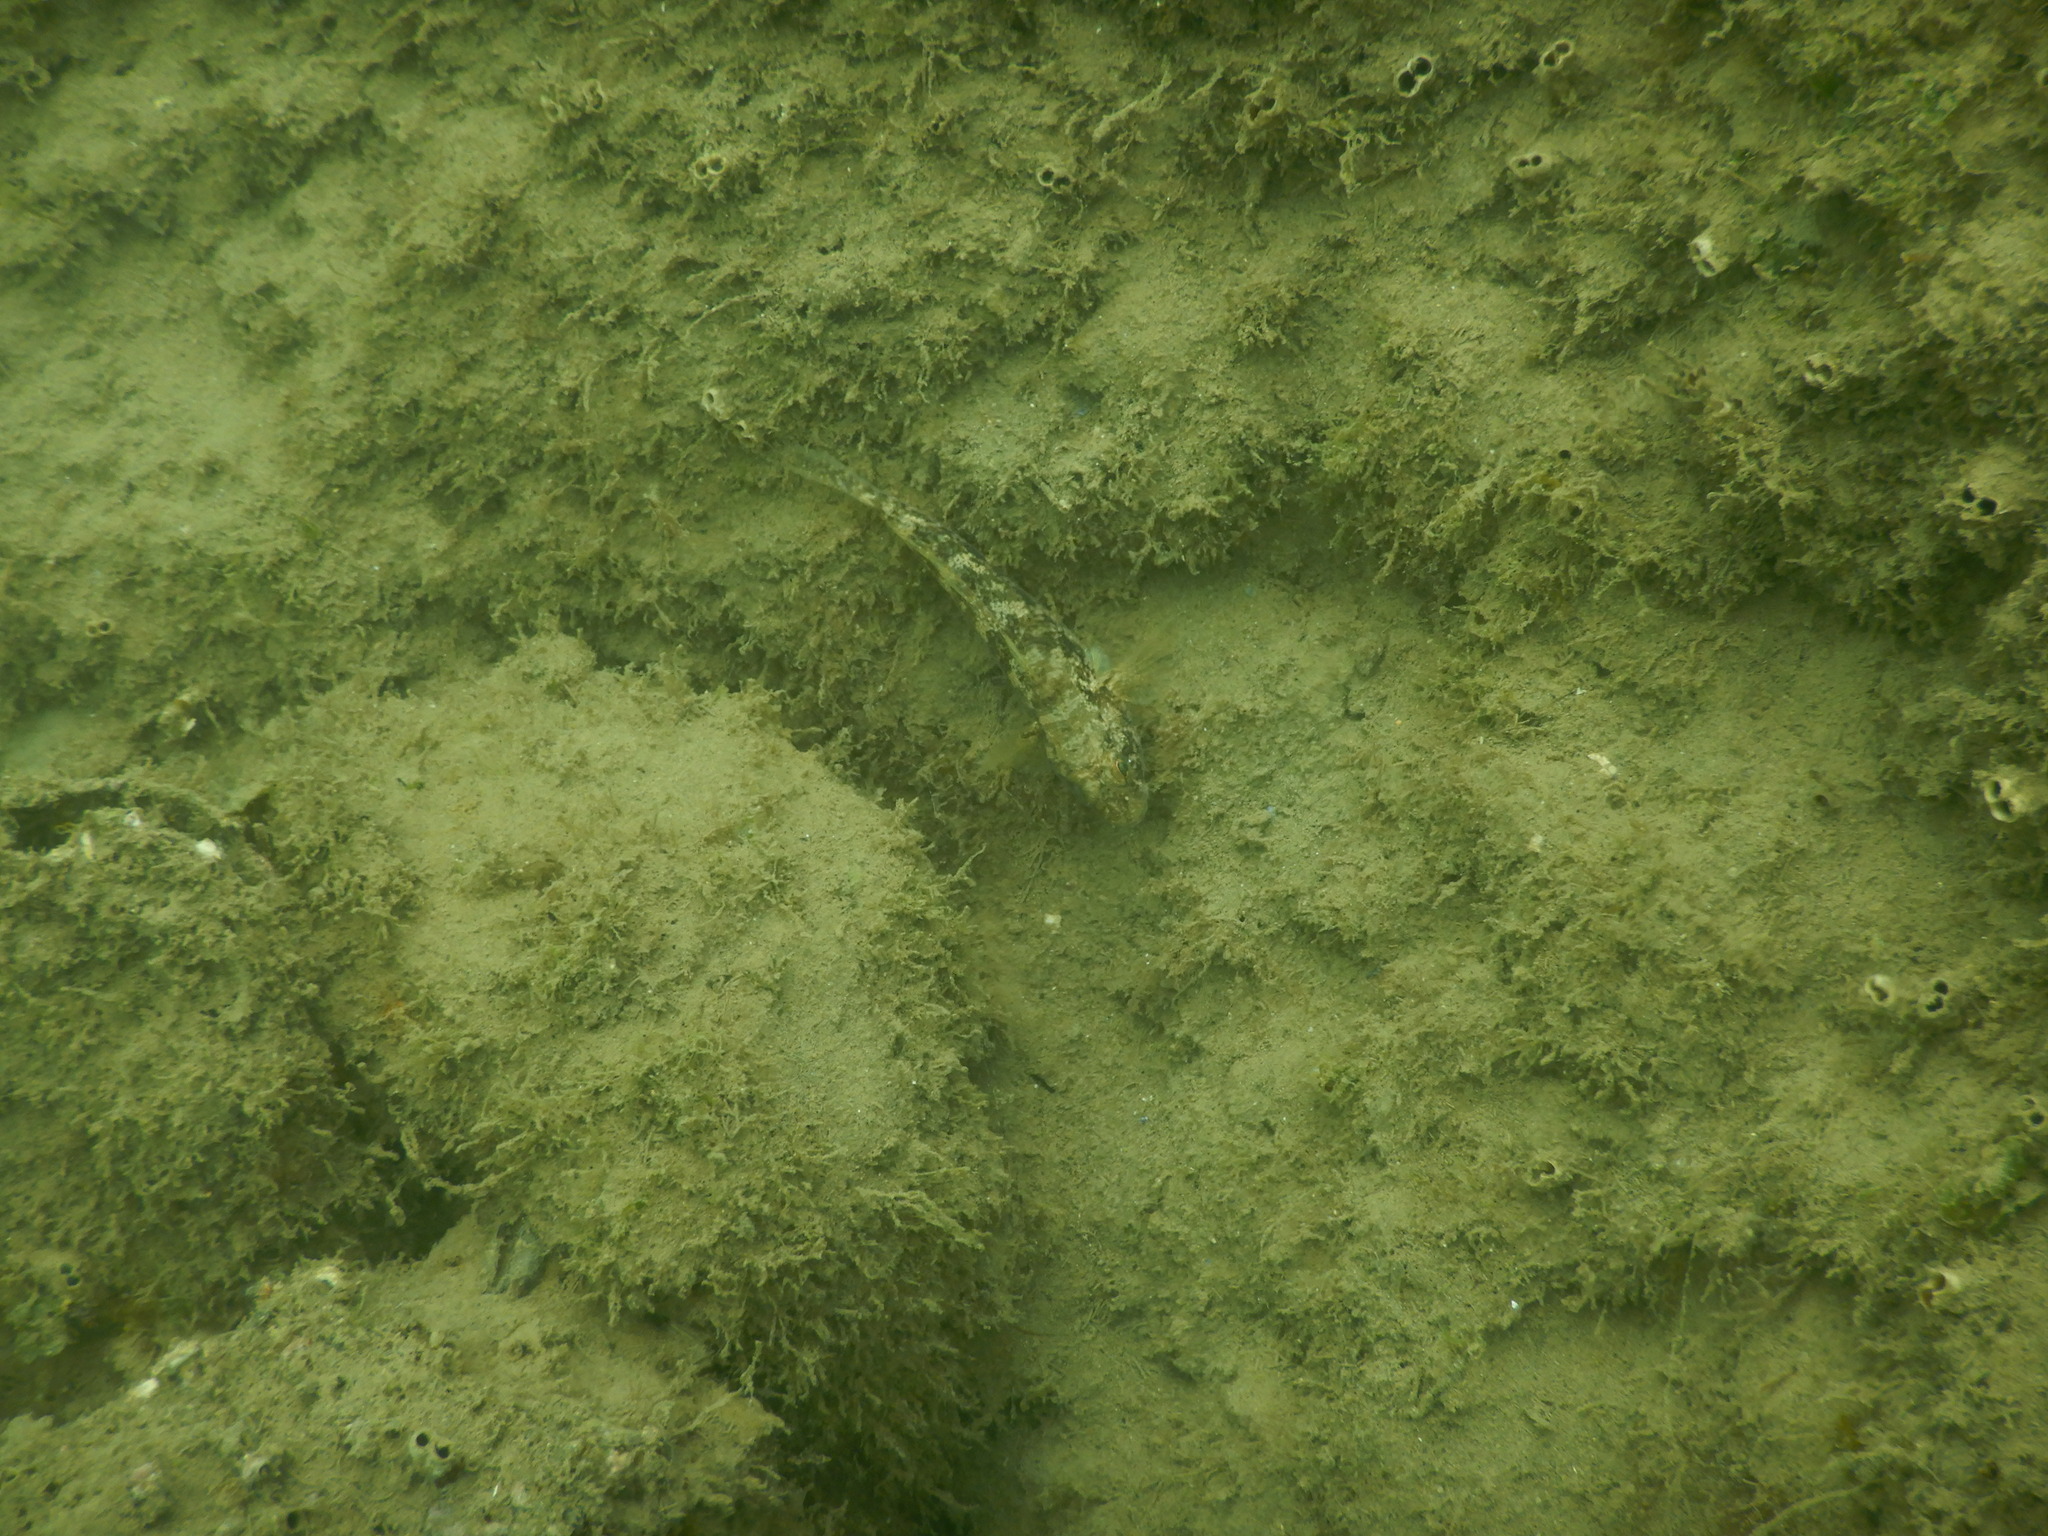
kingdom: Animalia
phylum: Chordata
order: Perciformes
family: Gobiidae
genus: Gobius
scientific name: Gobius niger
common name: Black goby
